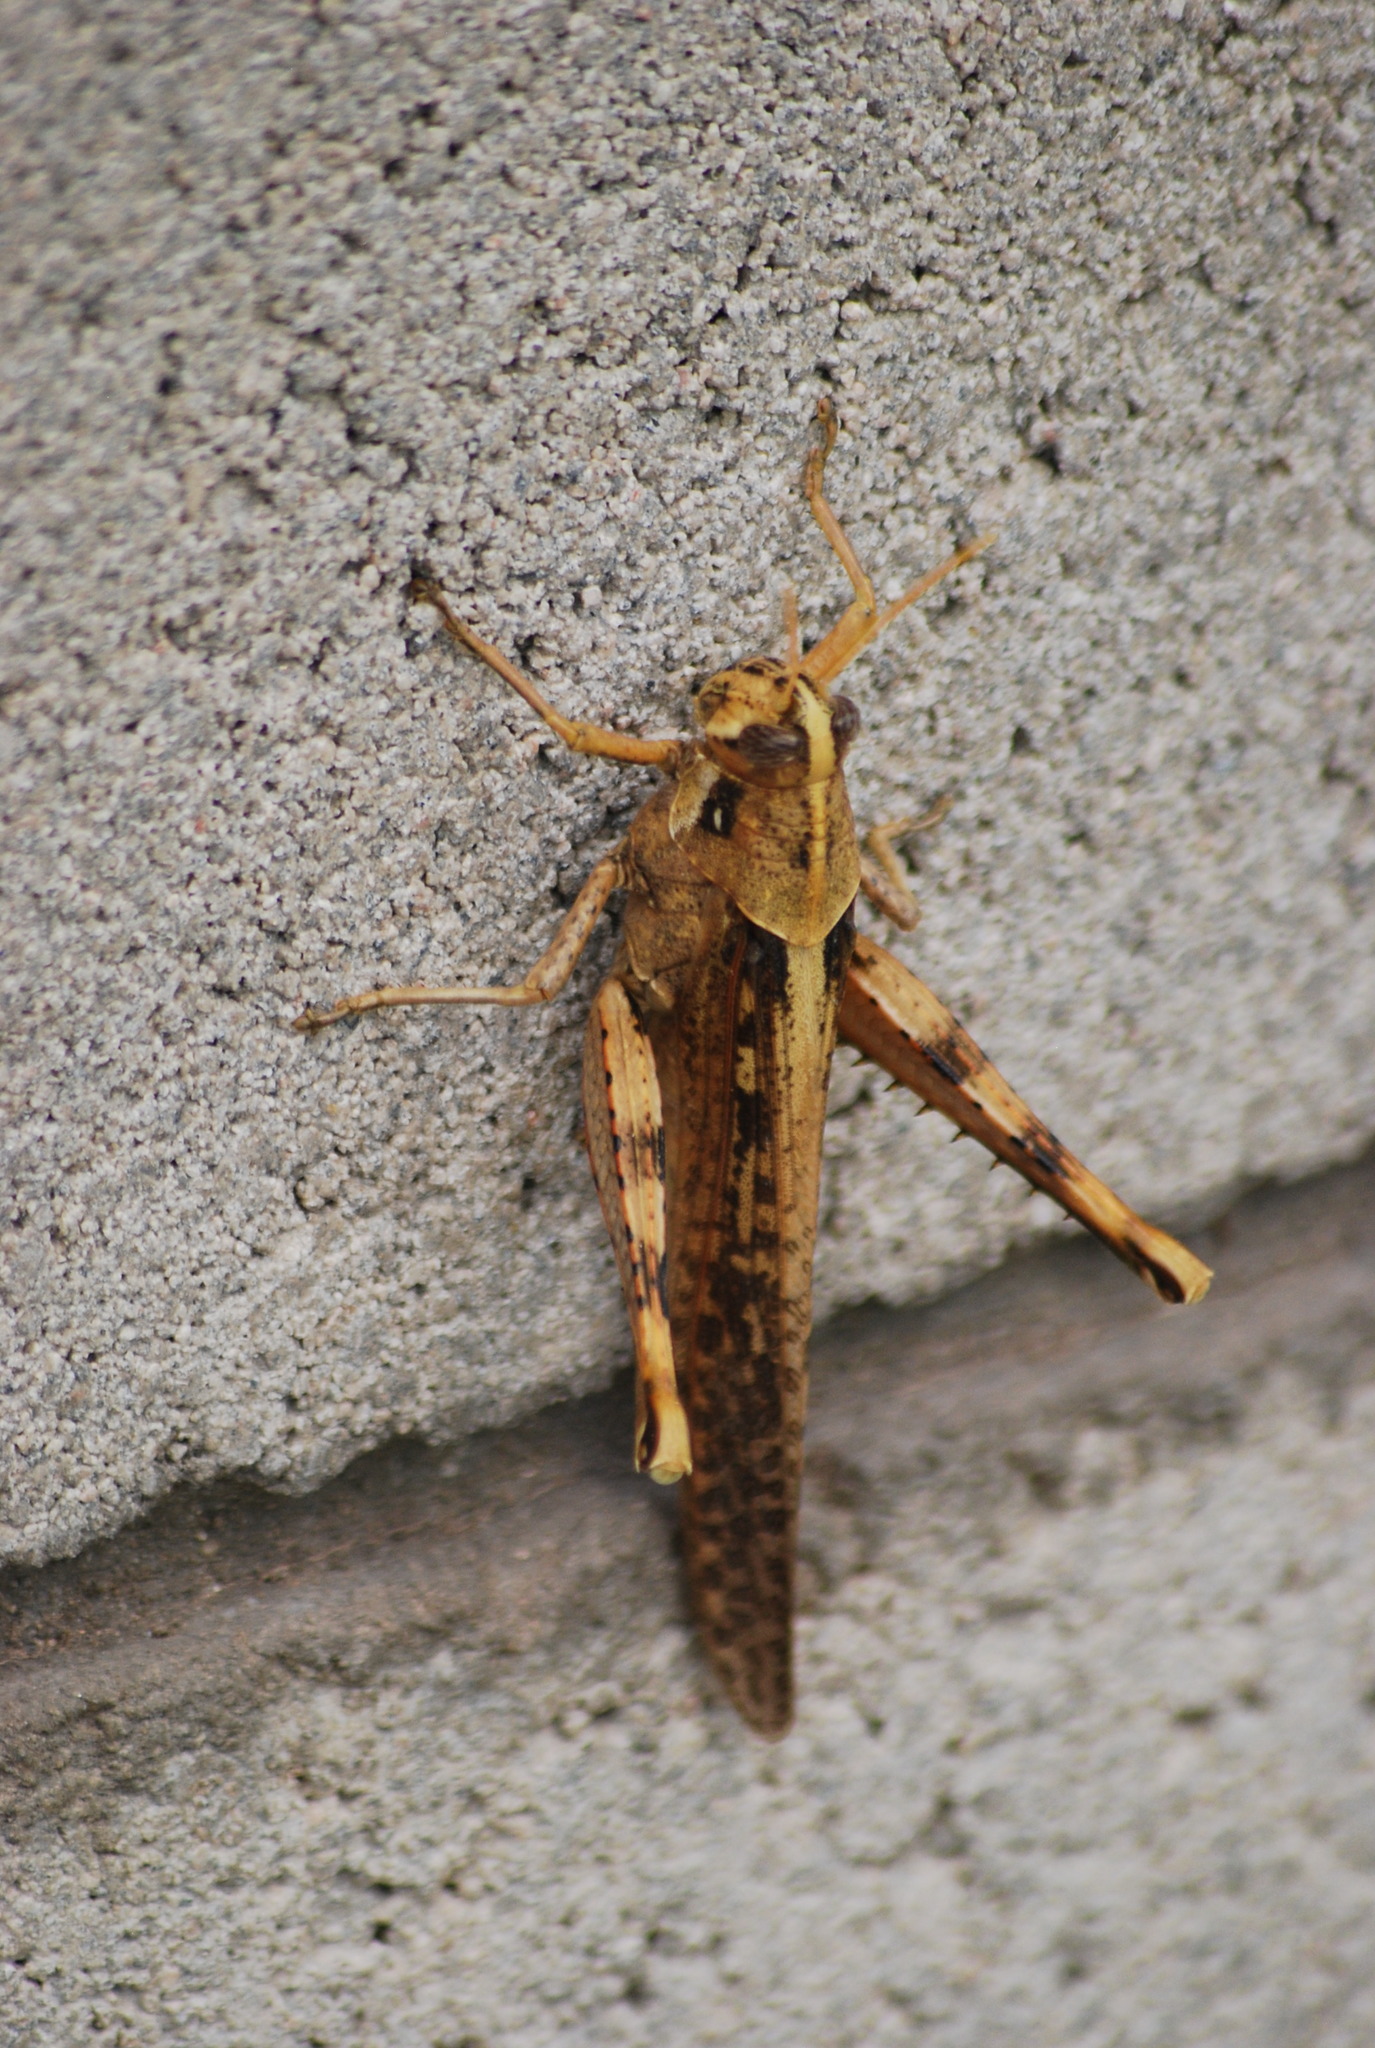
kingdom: Animalia
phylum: Arthropoda
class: Insecta
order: Orthoptera
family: Acrididae
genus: Schistocerca
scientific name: Schistocerca nitens
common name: Vagrant grasshopper
